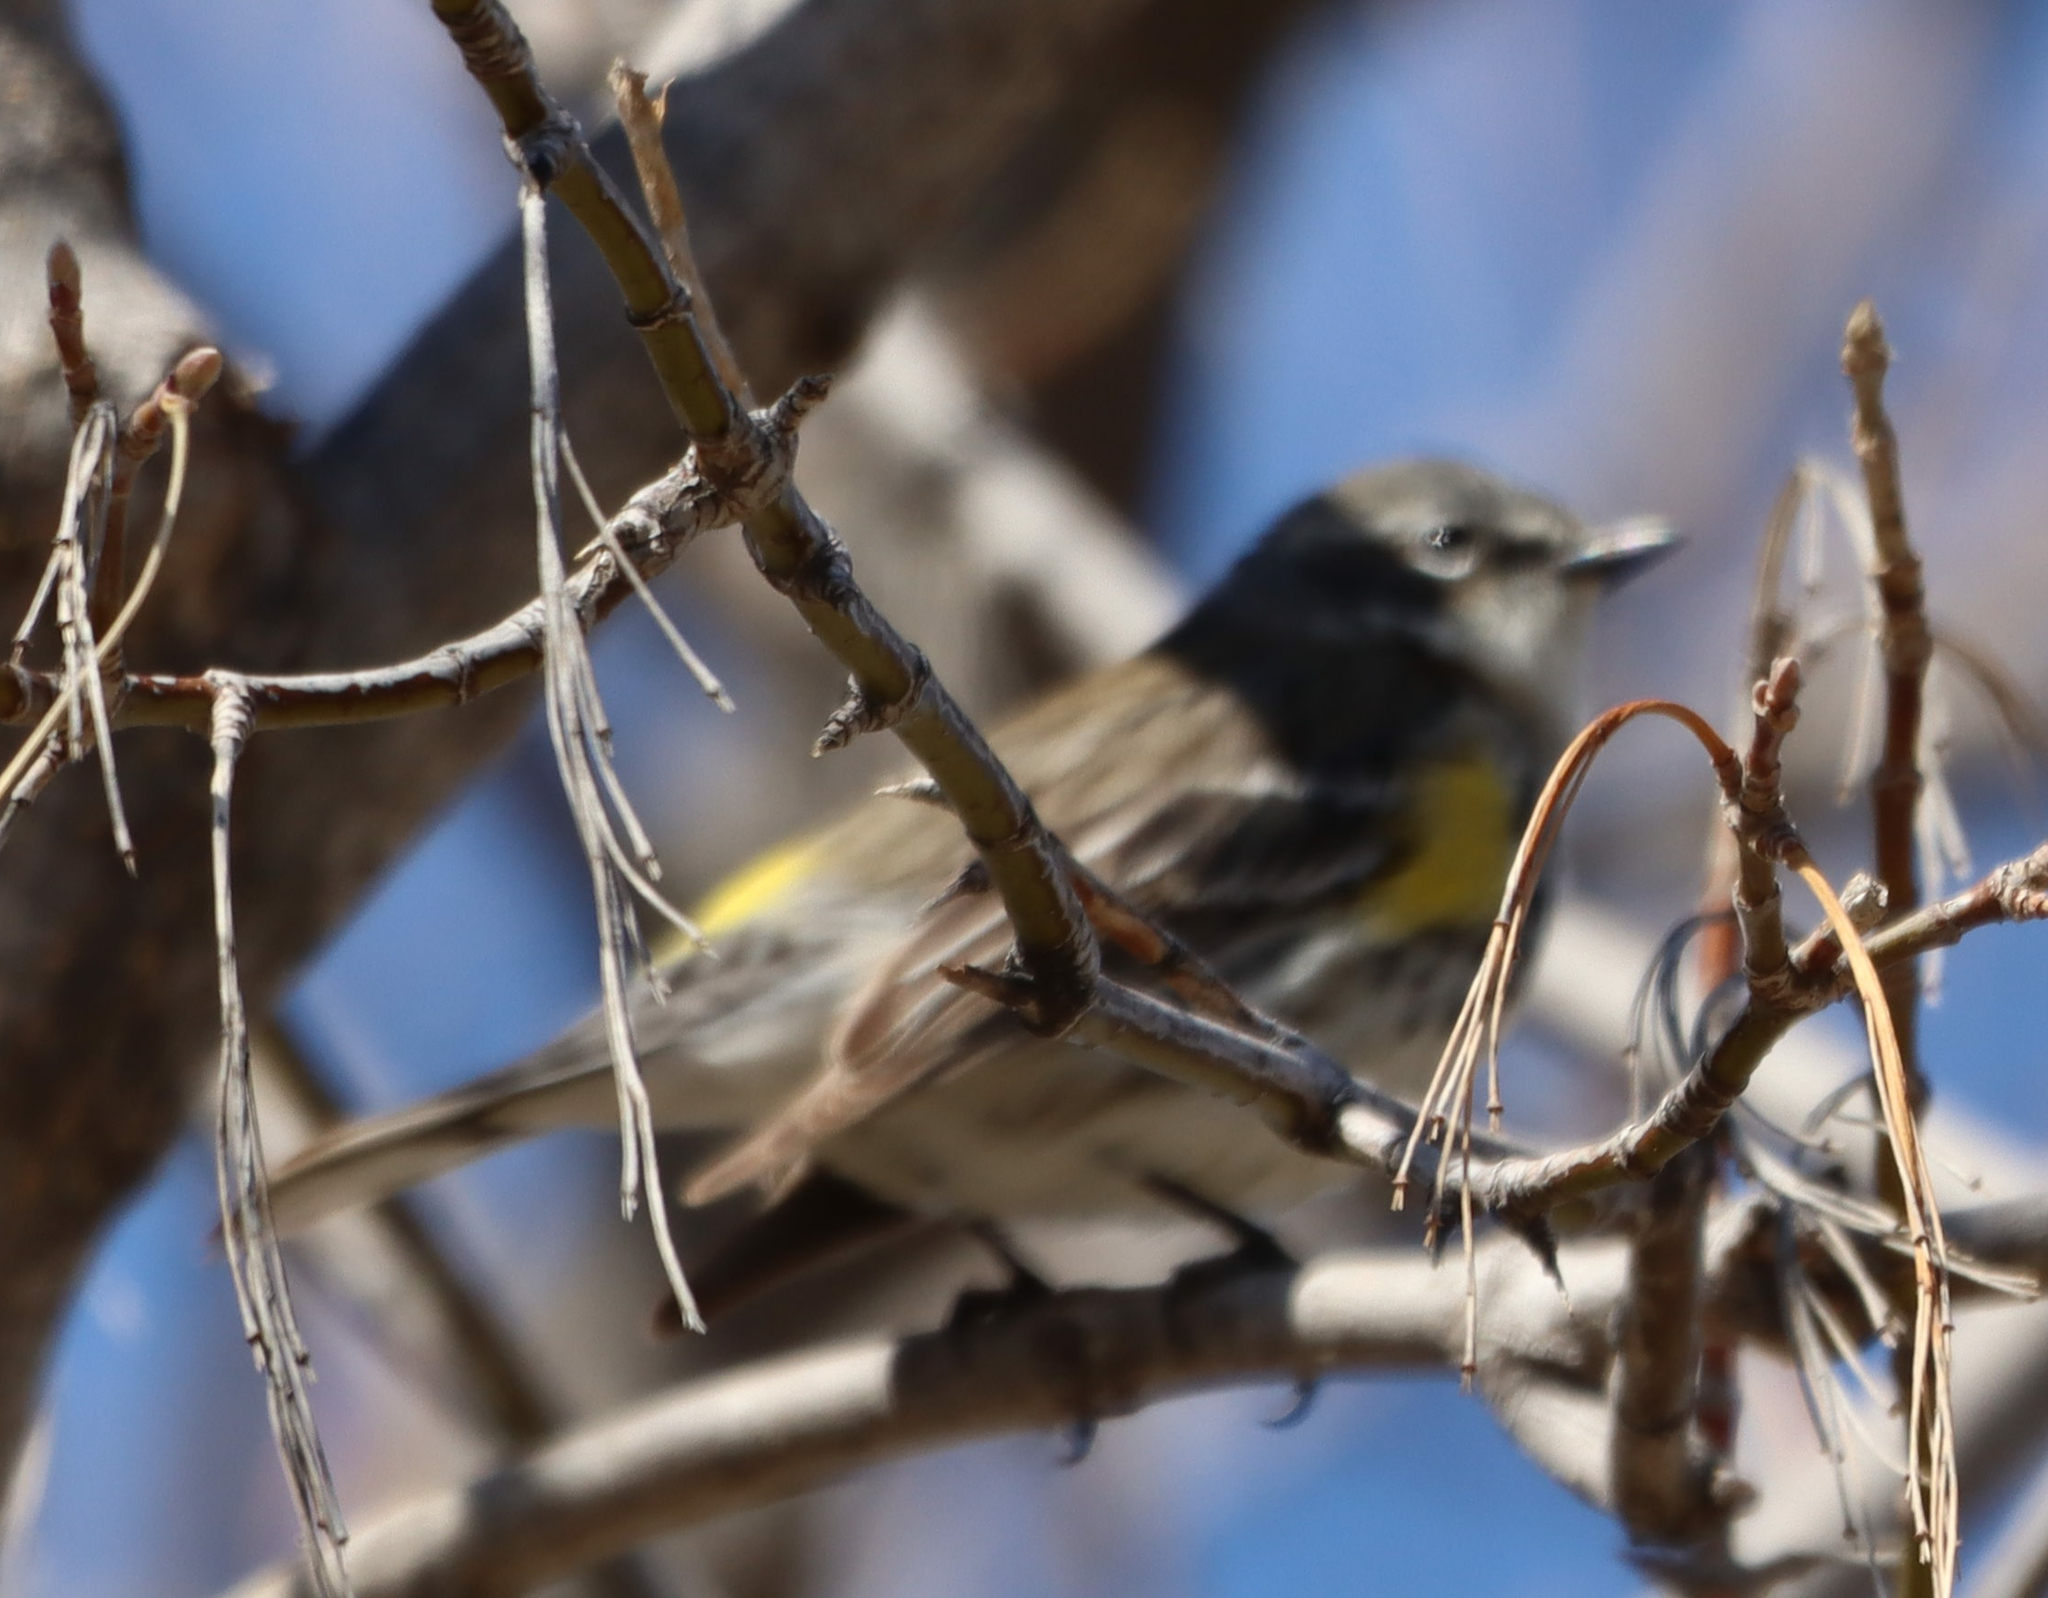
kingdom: Animalia
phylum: Chordata
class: Aves
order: Passeriformes
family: Parulidae
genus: Setophaga
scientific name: Setophaga coronata
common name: Myrtle warbler
